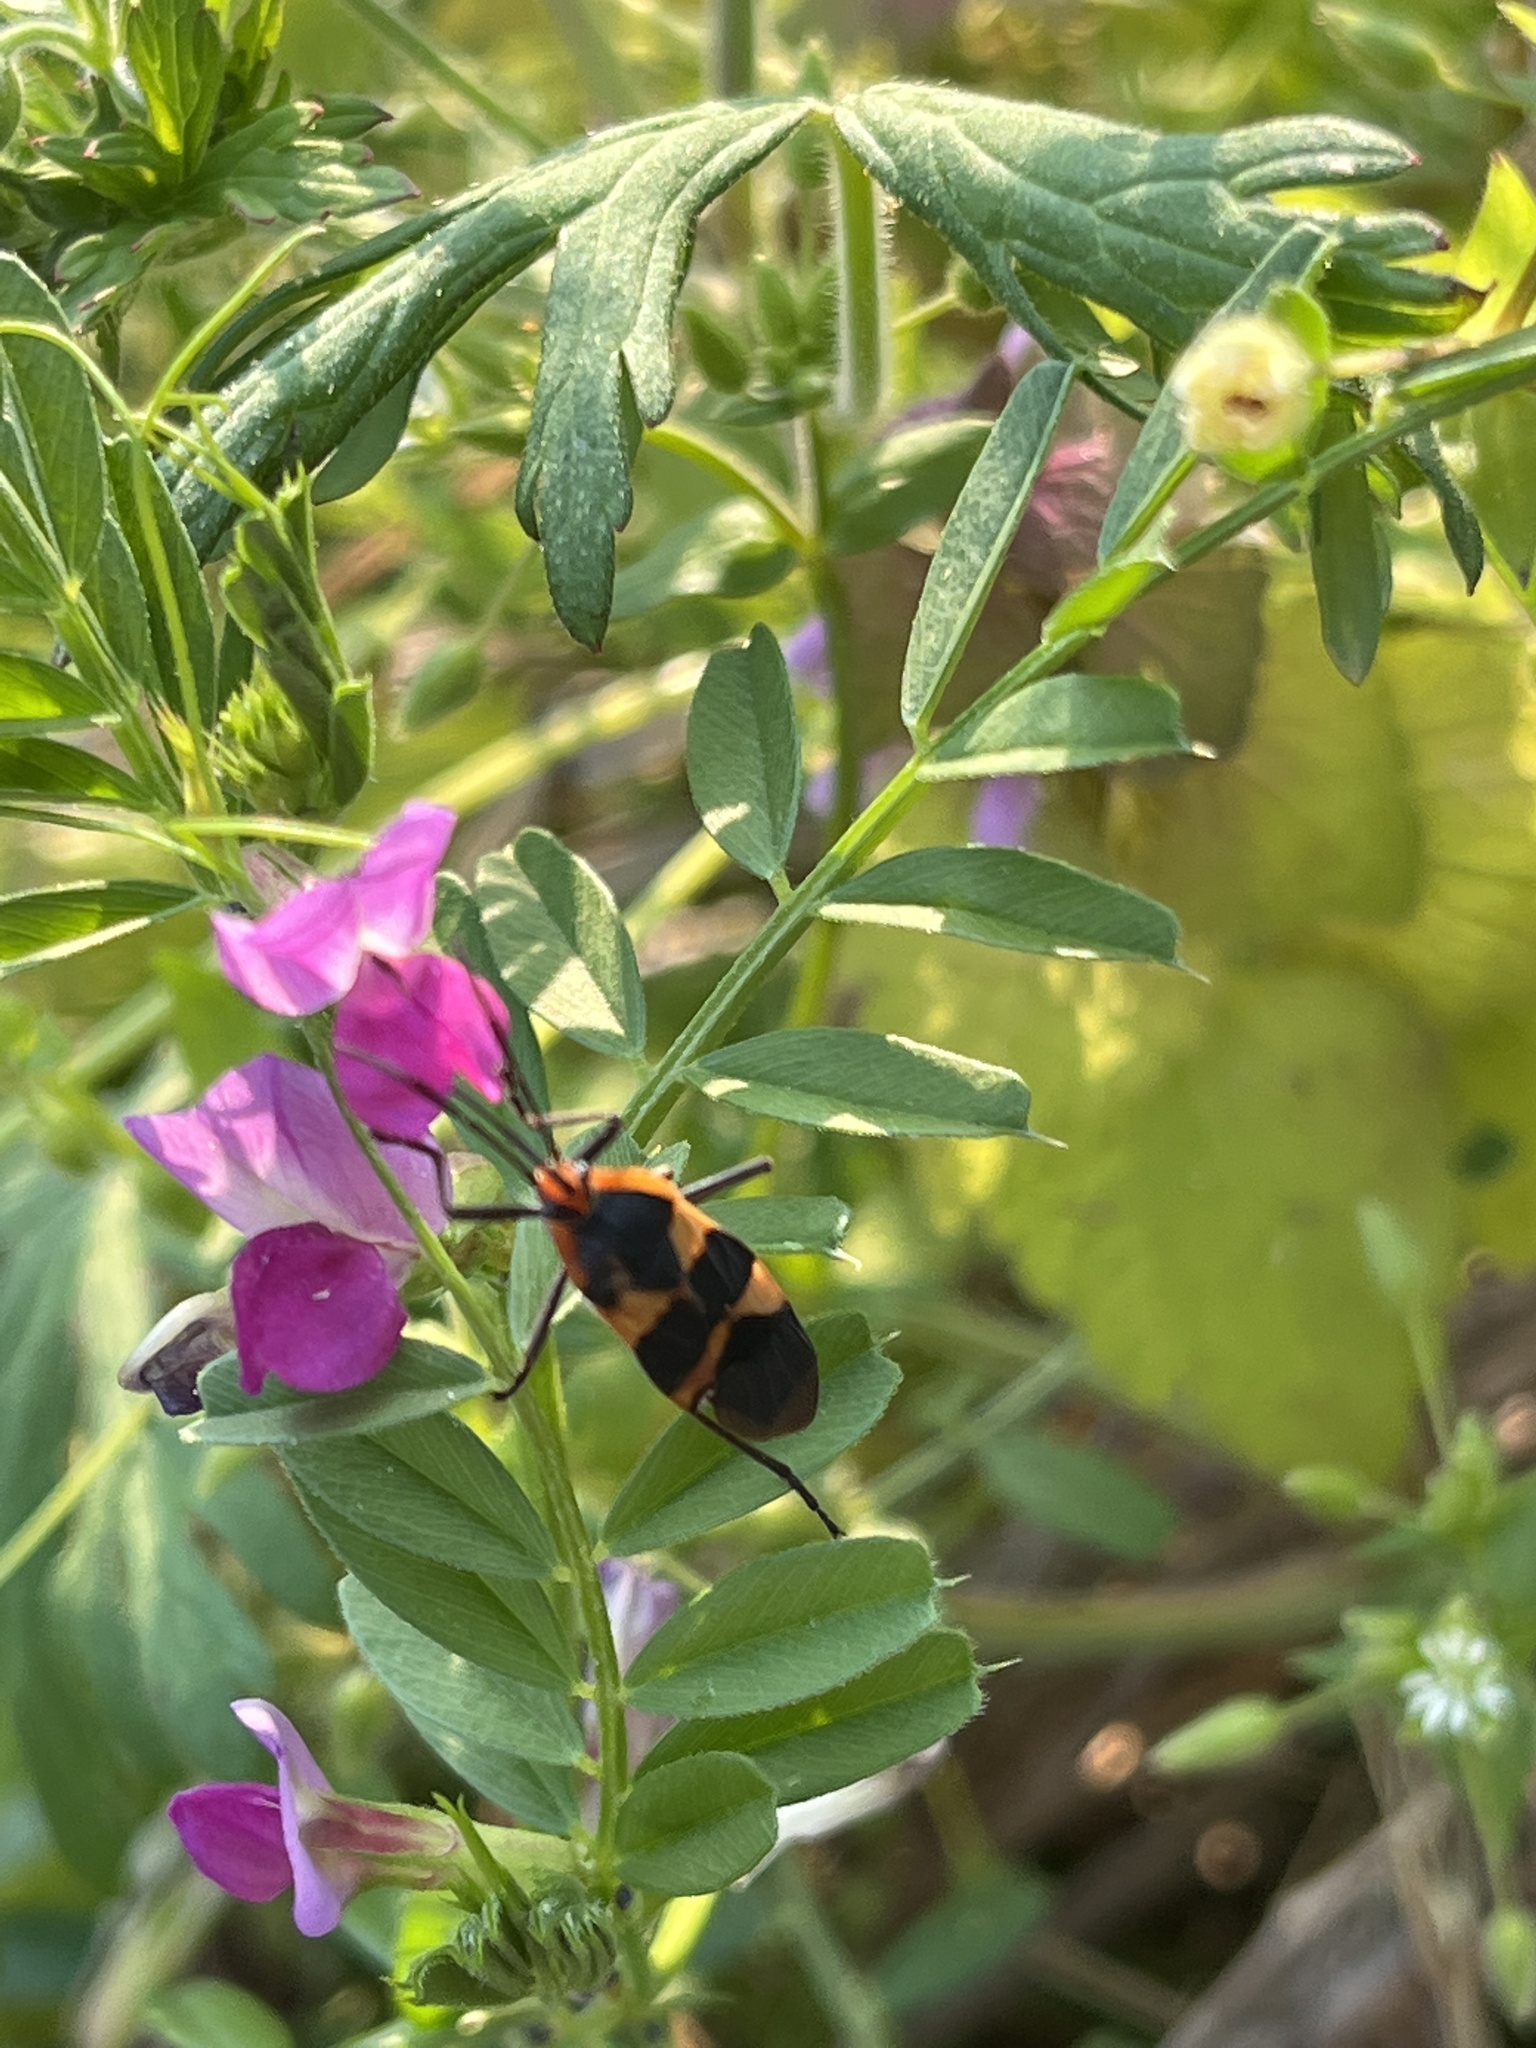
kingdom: Animalia
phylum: Arthropoda
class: Insecta
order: Hemiptera
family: Lygaeidae
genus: Oncopeltus
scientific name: Oncopeltus fasciatus
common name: Large milkweed bug
